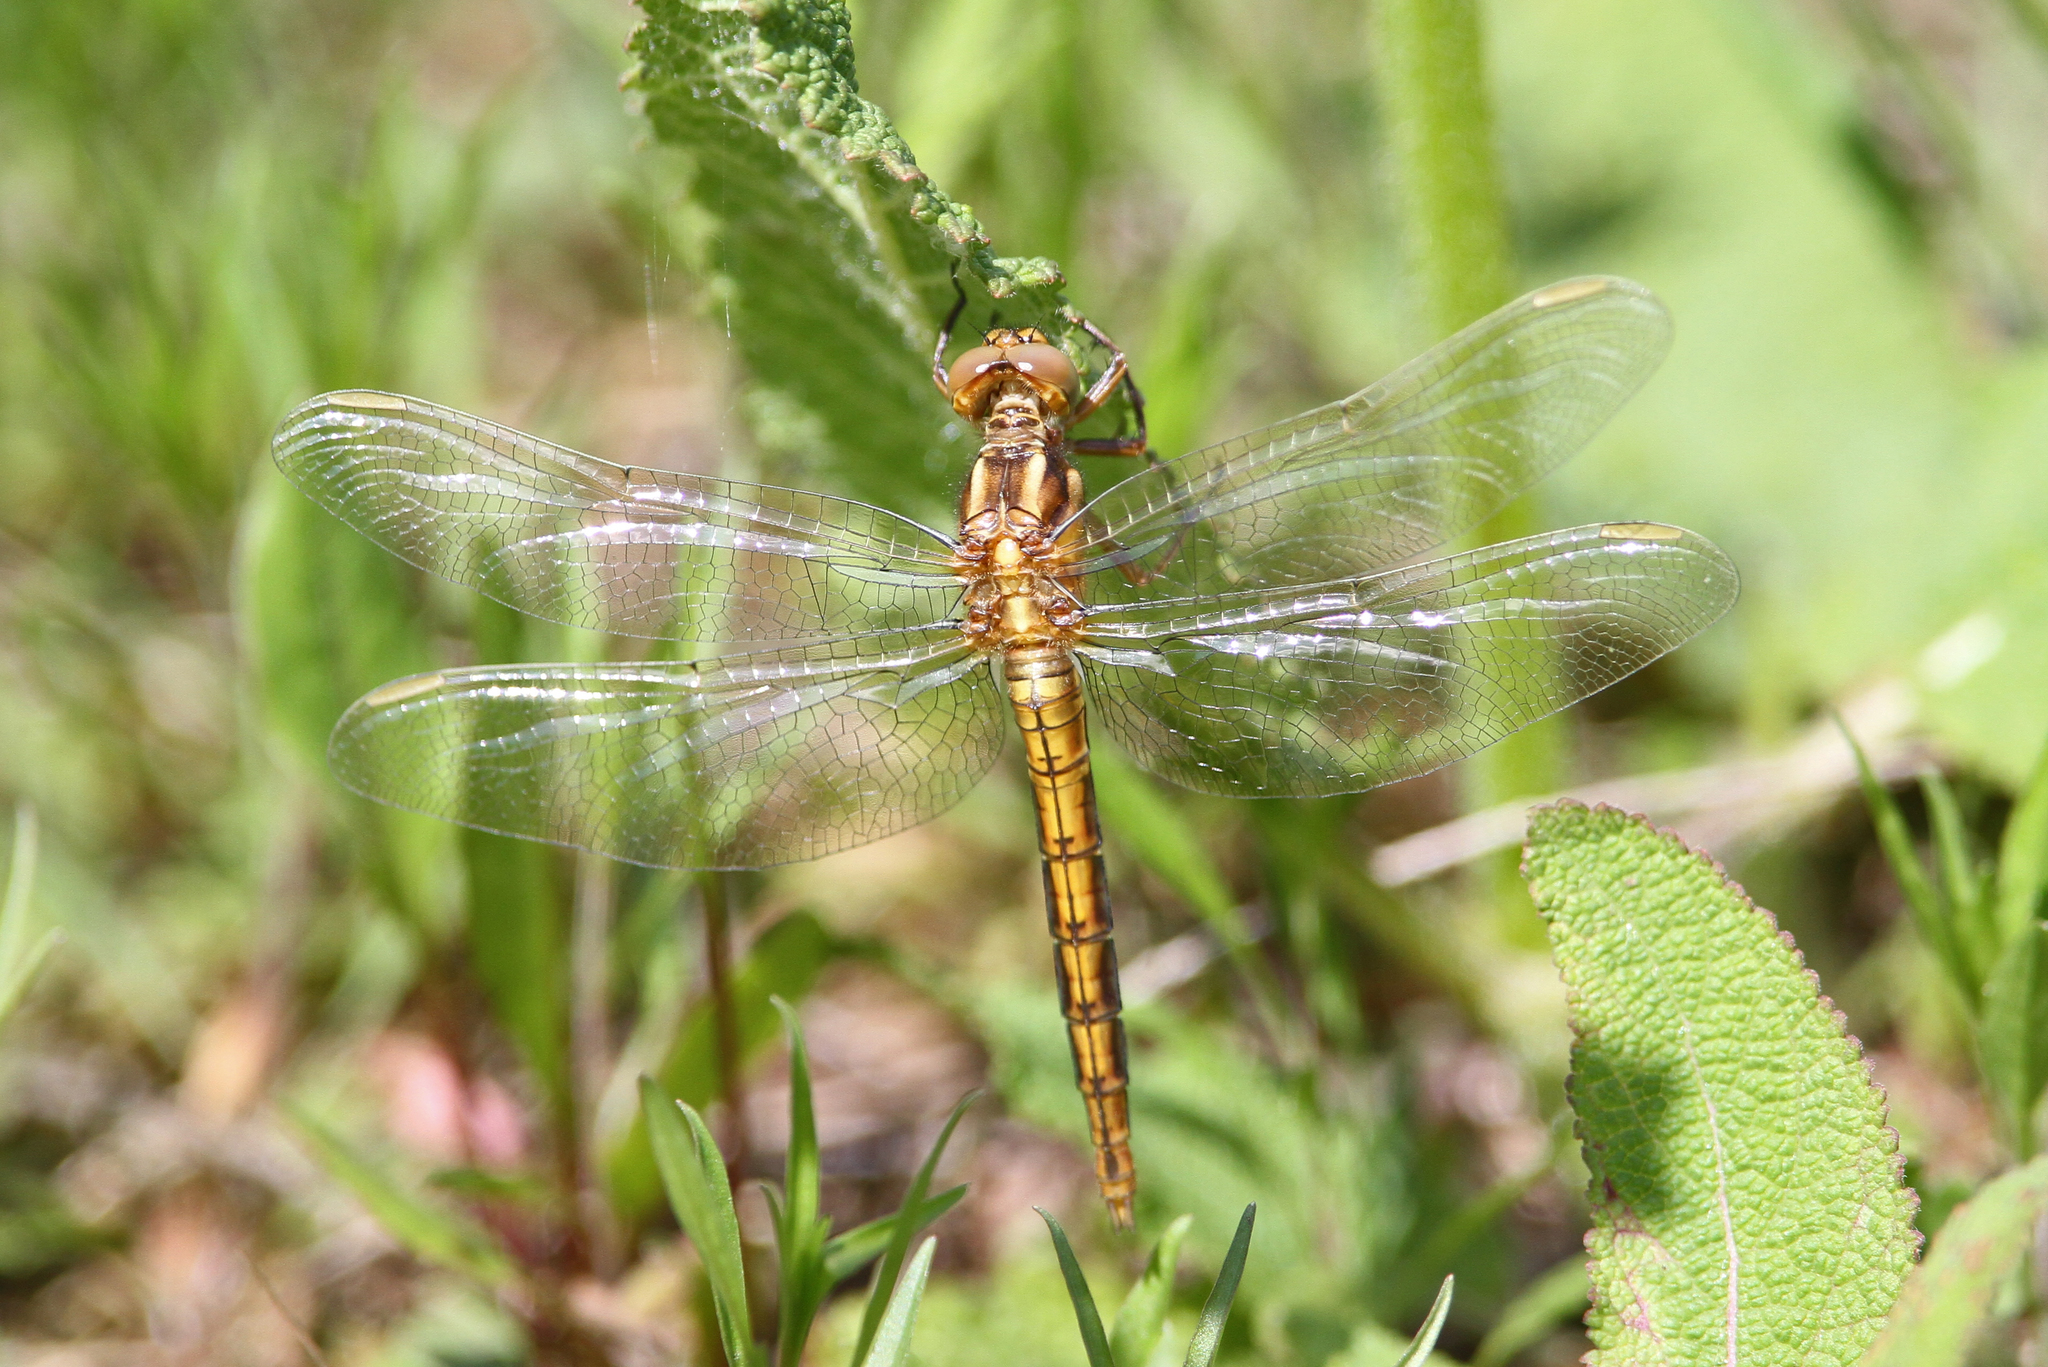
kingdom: Animalia
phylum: Arthropoda
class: Insecta
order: Odonata
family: Libellulidae
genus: Orthetrum
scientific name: Orthetrum coerulescens
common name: Keeled skimmer
